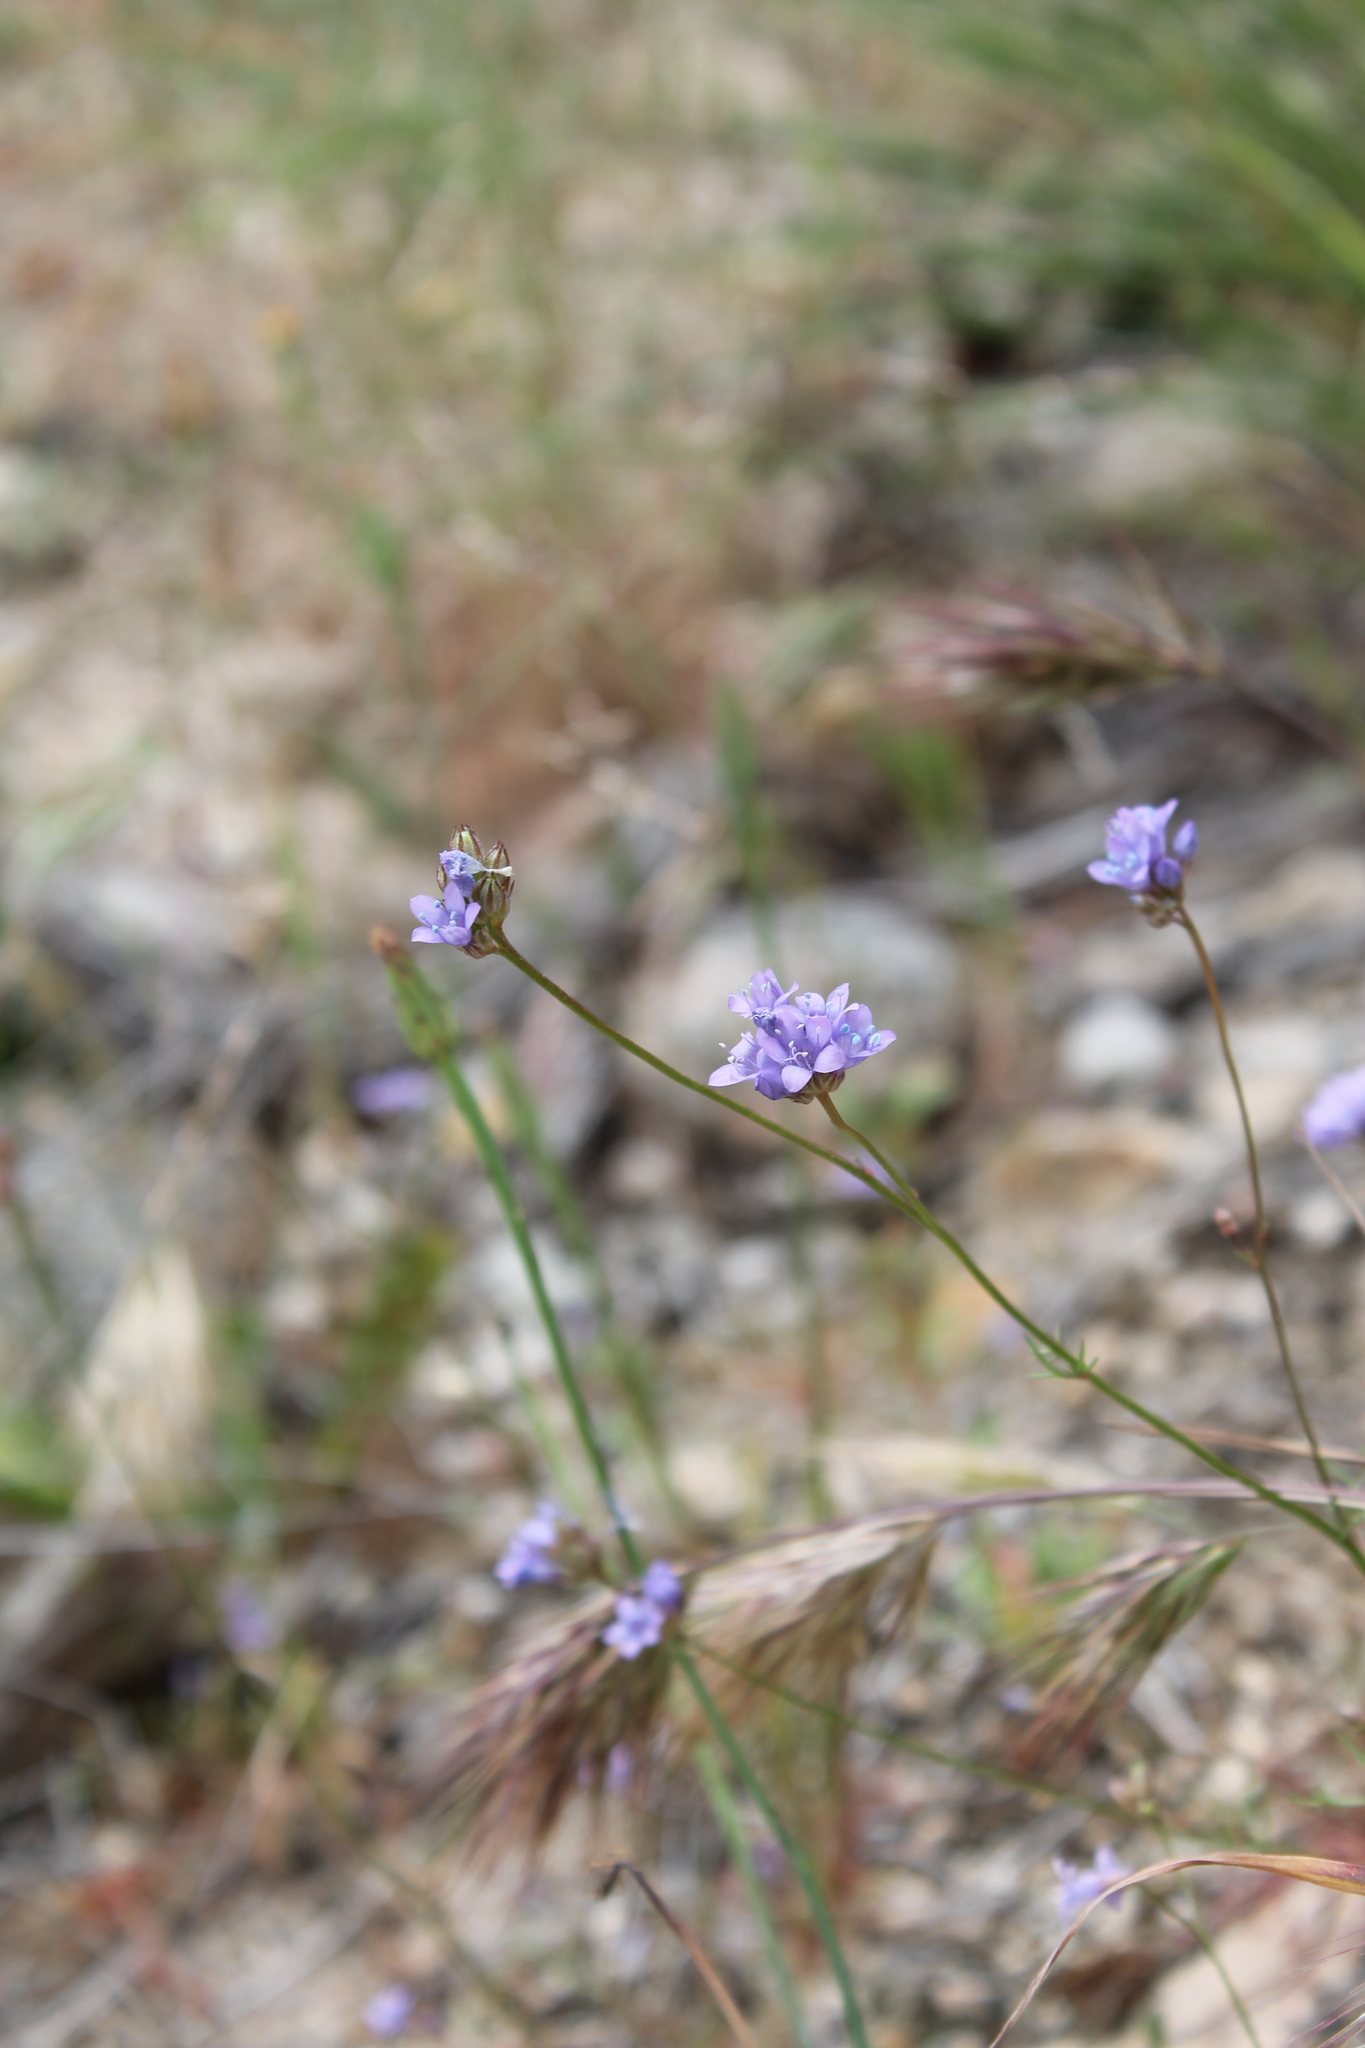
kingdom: Plantae
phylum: Tracheophyta
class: Magnoliopsida
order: Ericales
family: Polemoniaceae
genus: Gilia
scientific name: Gilia achilleifolia
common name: California gily-flower
